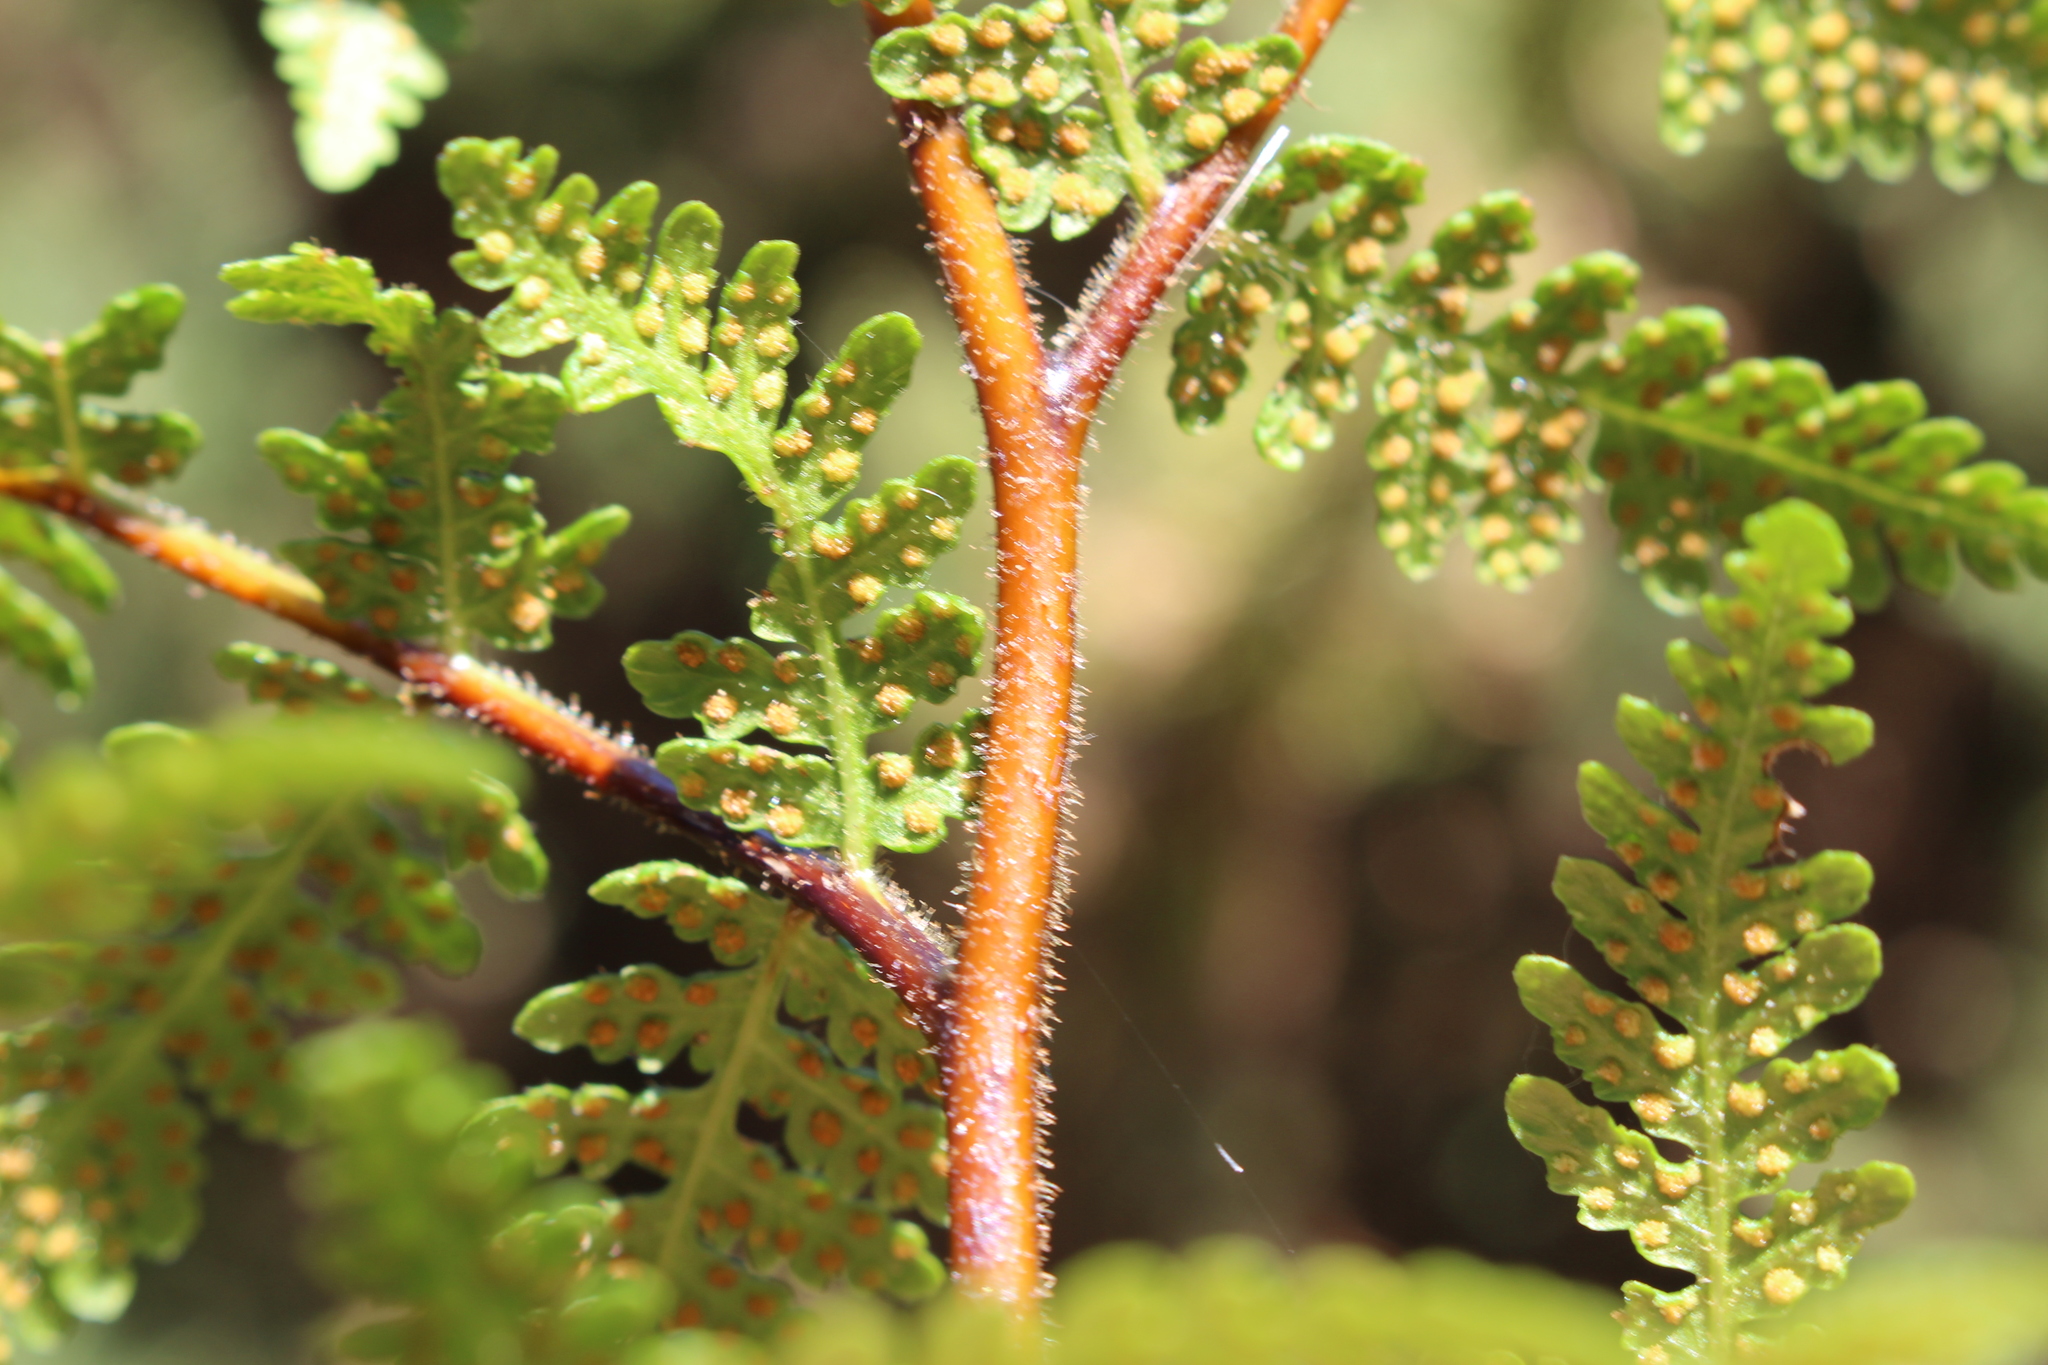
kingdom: Plantae
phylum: Tracheophyta
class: Polypodiopsida
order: Polypodiales
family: Dennstaedtiaceae
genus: Hypolepis
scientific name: Hypolepis ambigua
